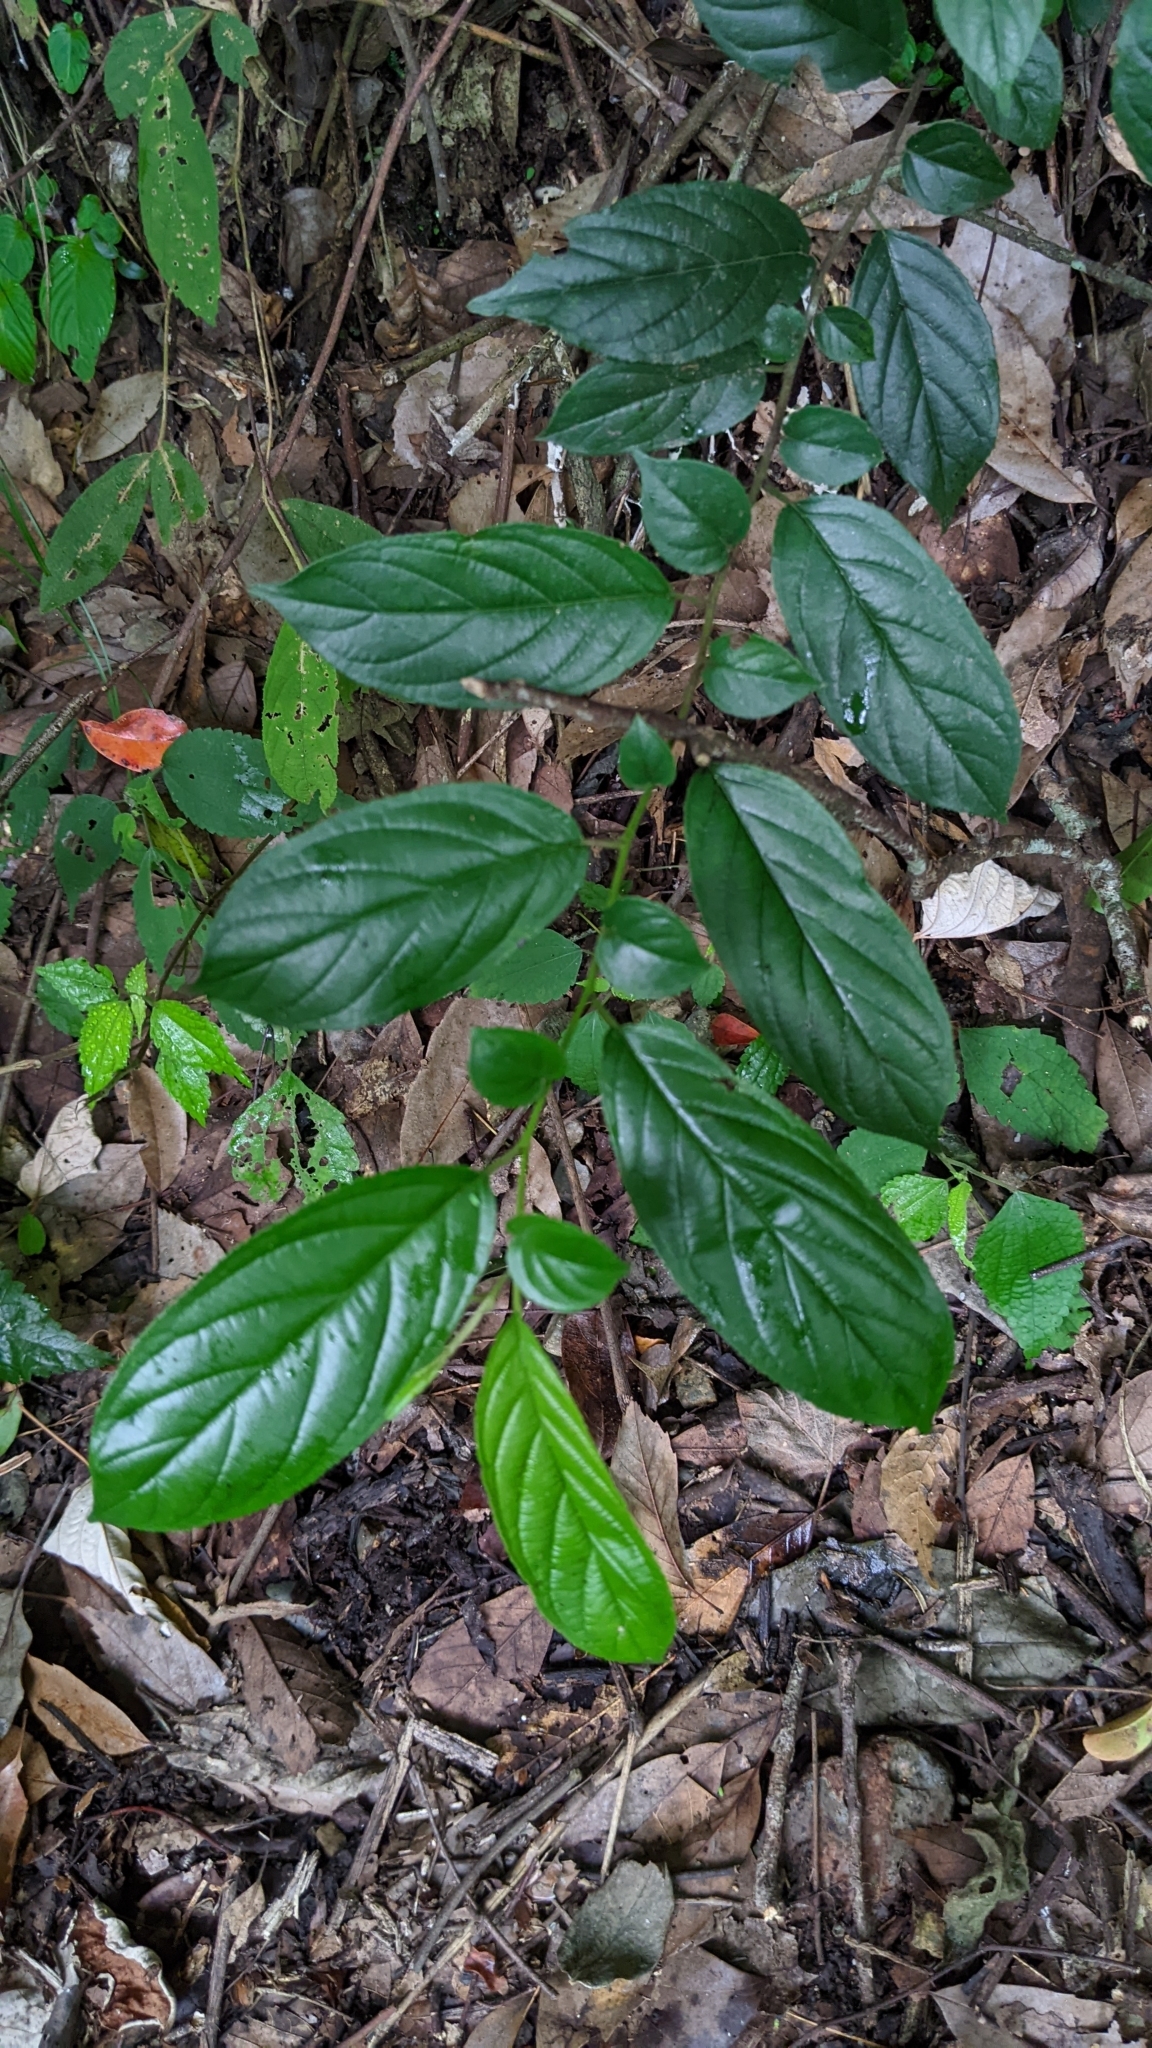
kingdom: Plantae
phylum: Tracheophyta
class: Magnoliopsida
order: Rosales
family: Rhamnaceae
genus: Rhamnus
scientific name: Rhamnus formosana
